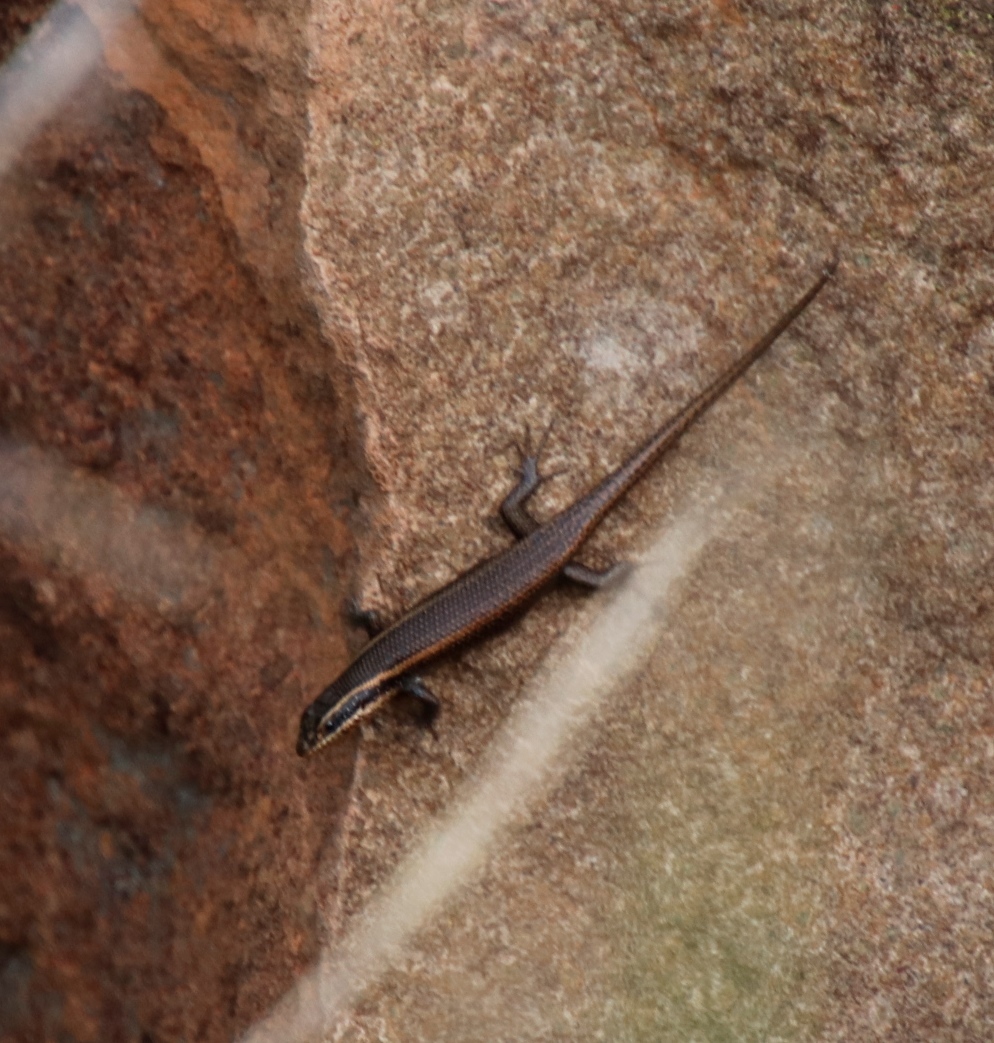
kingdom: Animalia
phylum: Chordata
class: Squamata
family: Scincidae
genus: Trachylepis
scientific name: Trachylepis punctatissima
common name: Montane speckled skink
